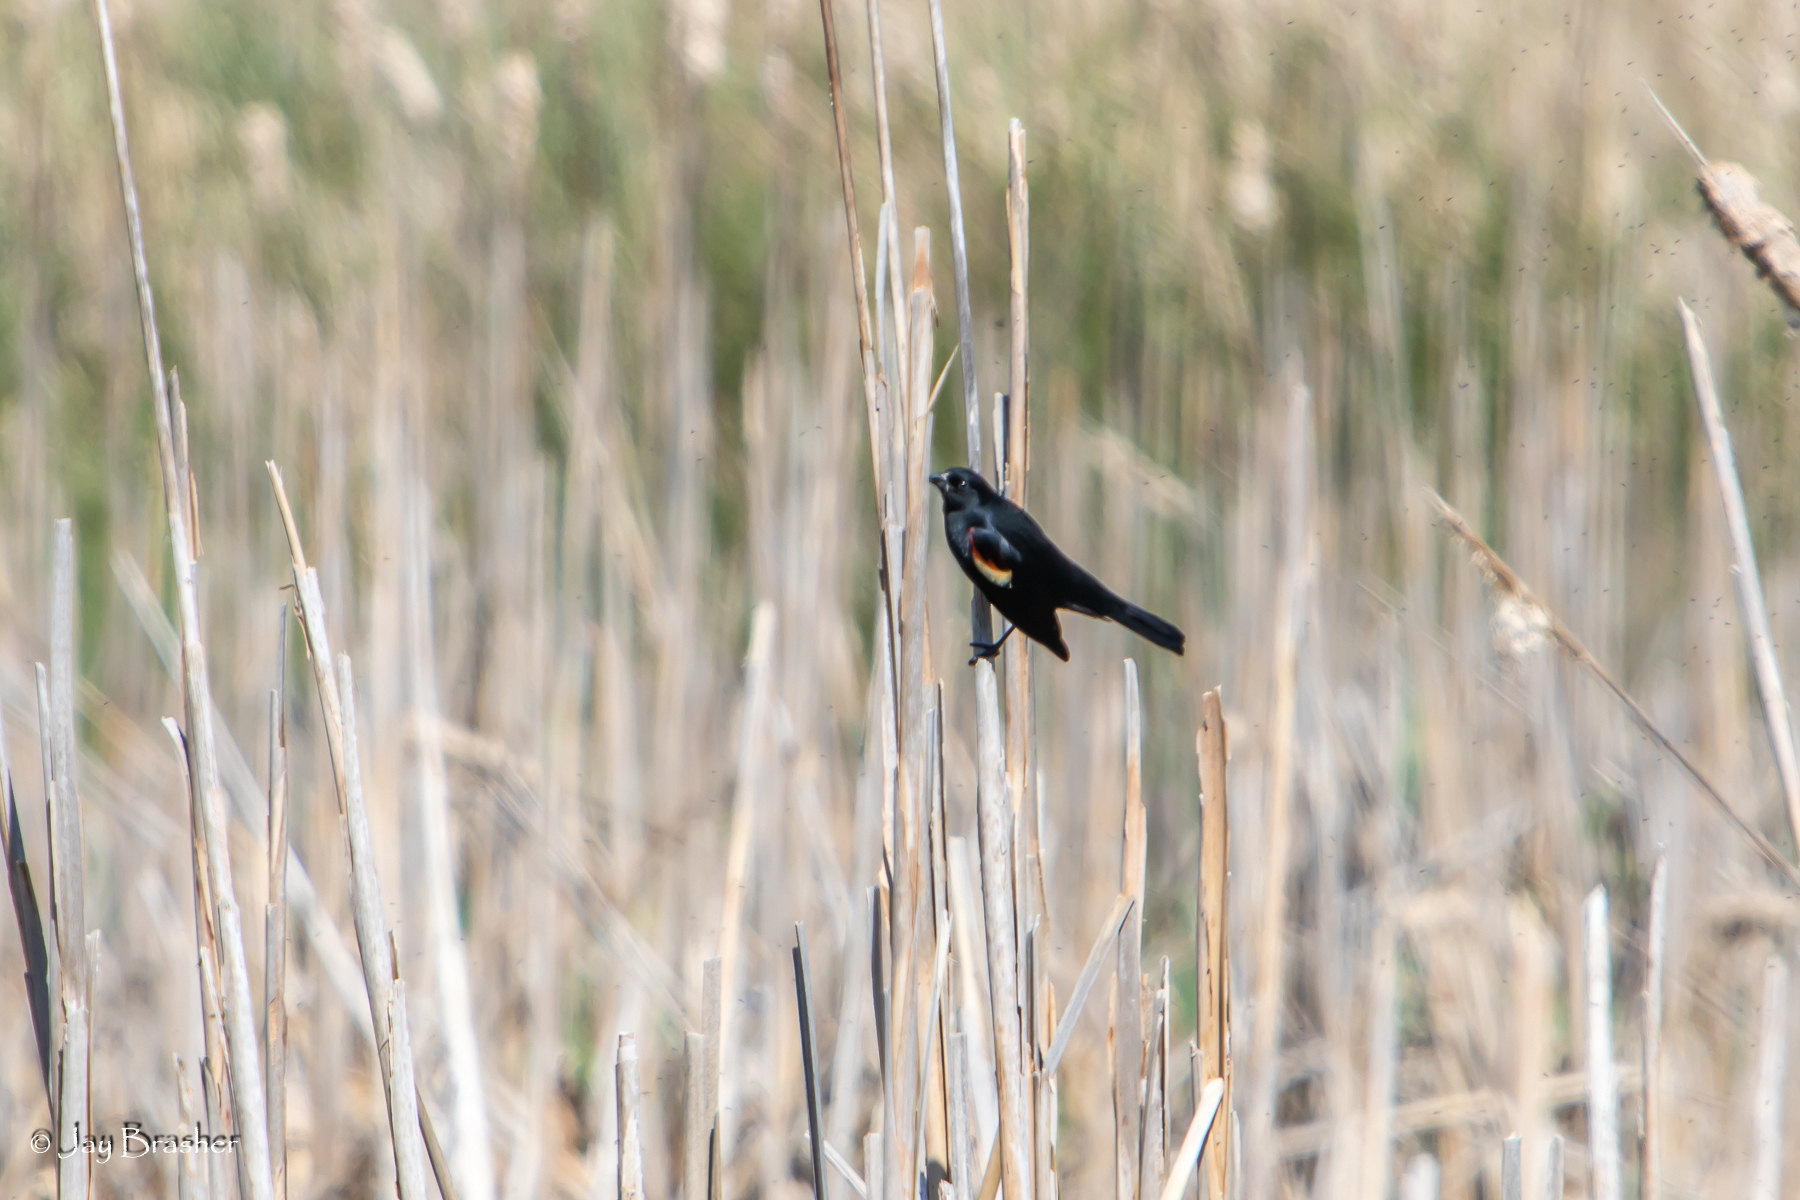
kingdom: Animalia
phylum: Chordata
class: Aves
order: Passeriformes
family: Icteridae
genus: Agelaius
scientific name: Agelaius phoeniceus
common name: Red-winged blackbird
